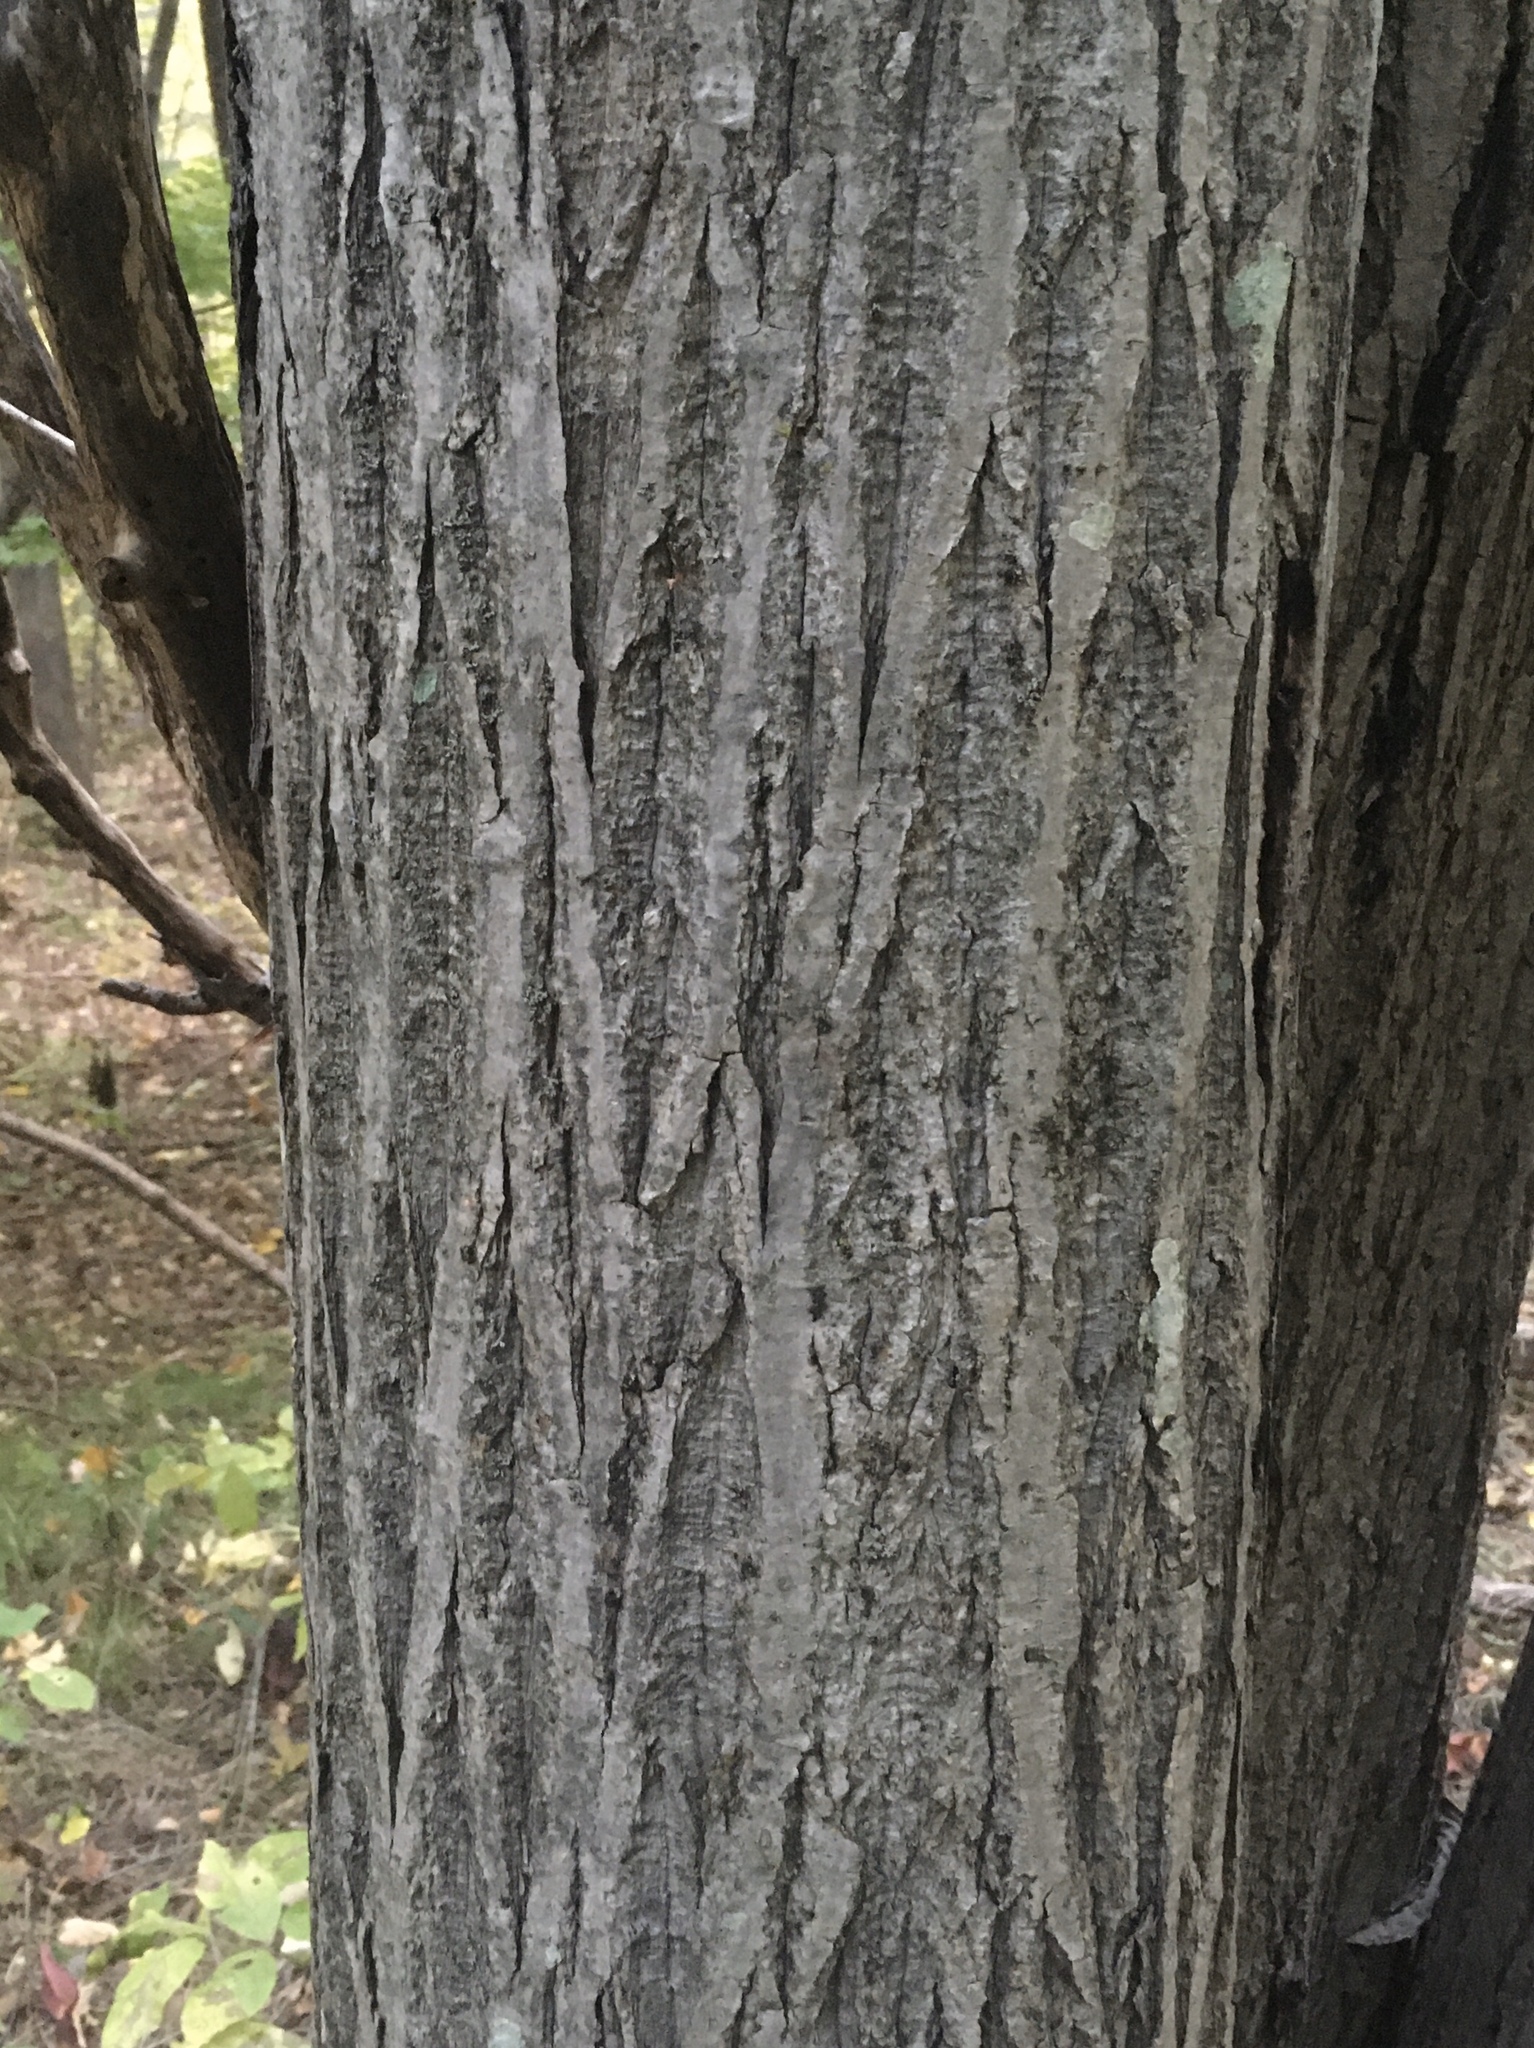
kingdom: Plantae
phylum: Tracheophyta
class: Magnoliopsida
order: Fagales
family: Juglandaceae
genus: Juglans
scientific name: Juglans cinerea
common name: Butternut
